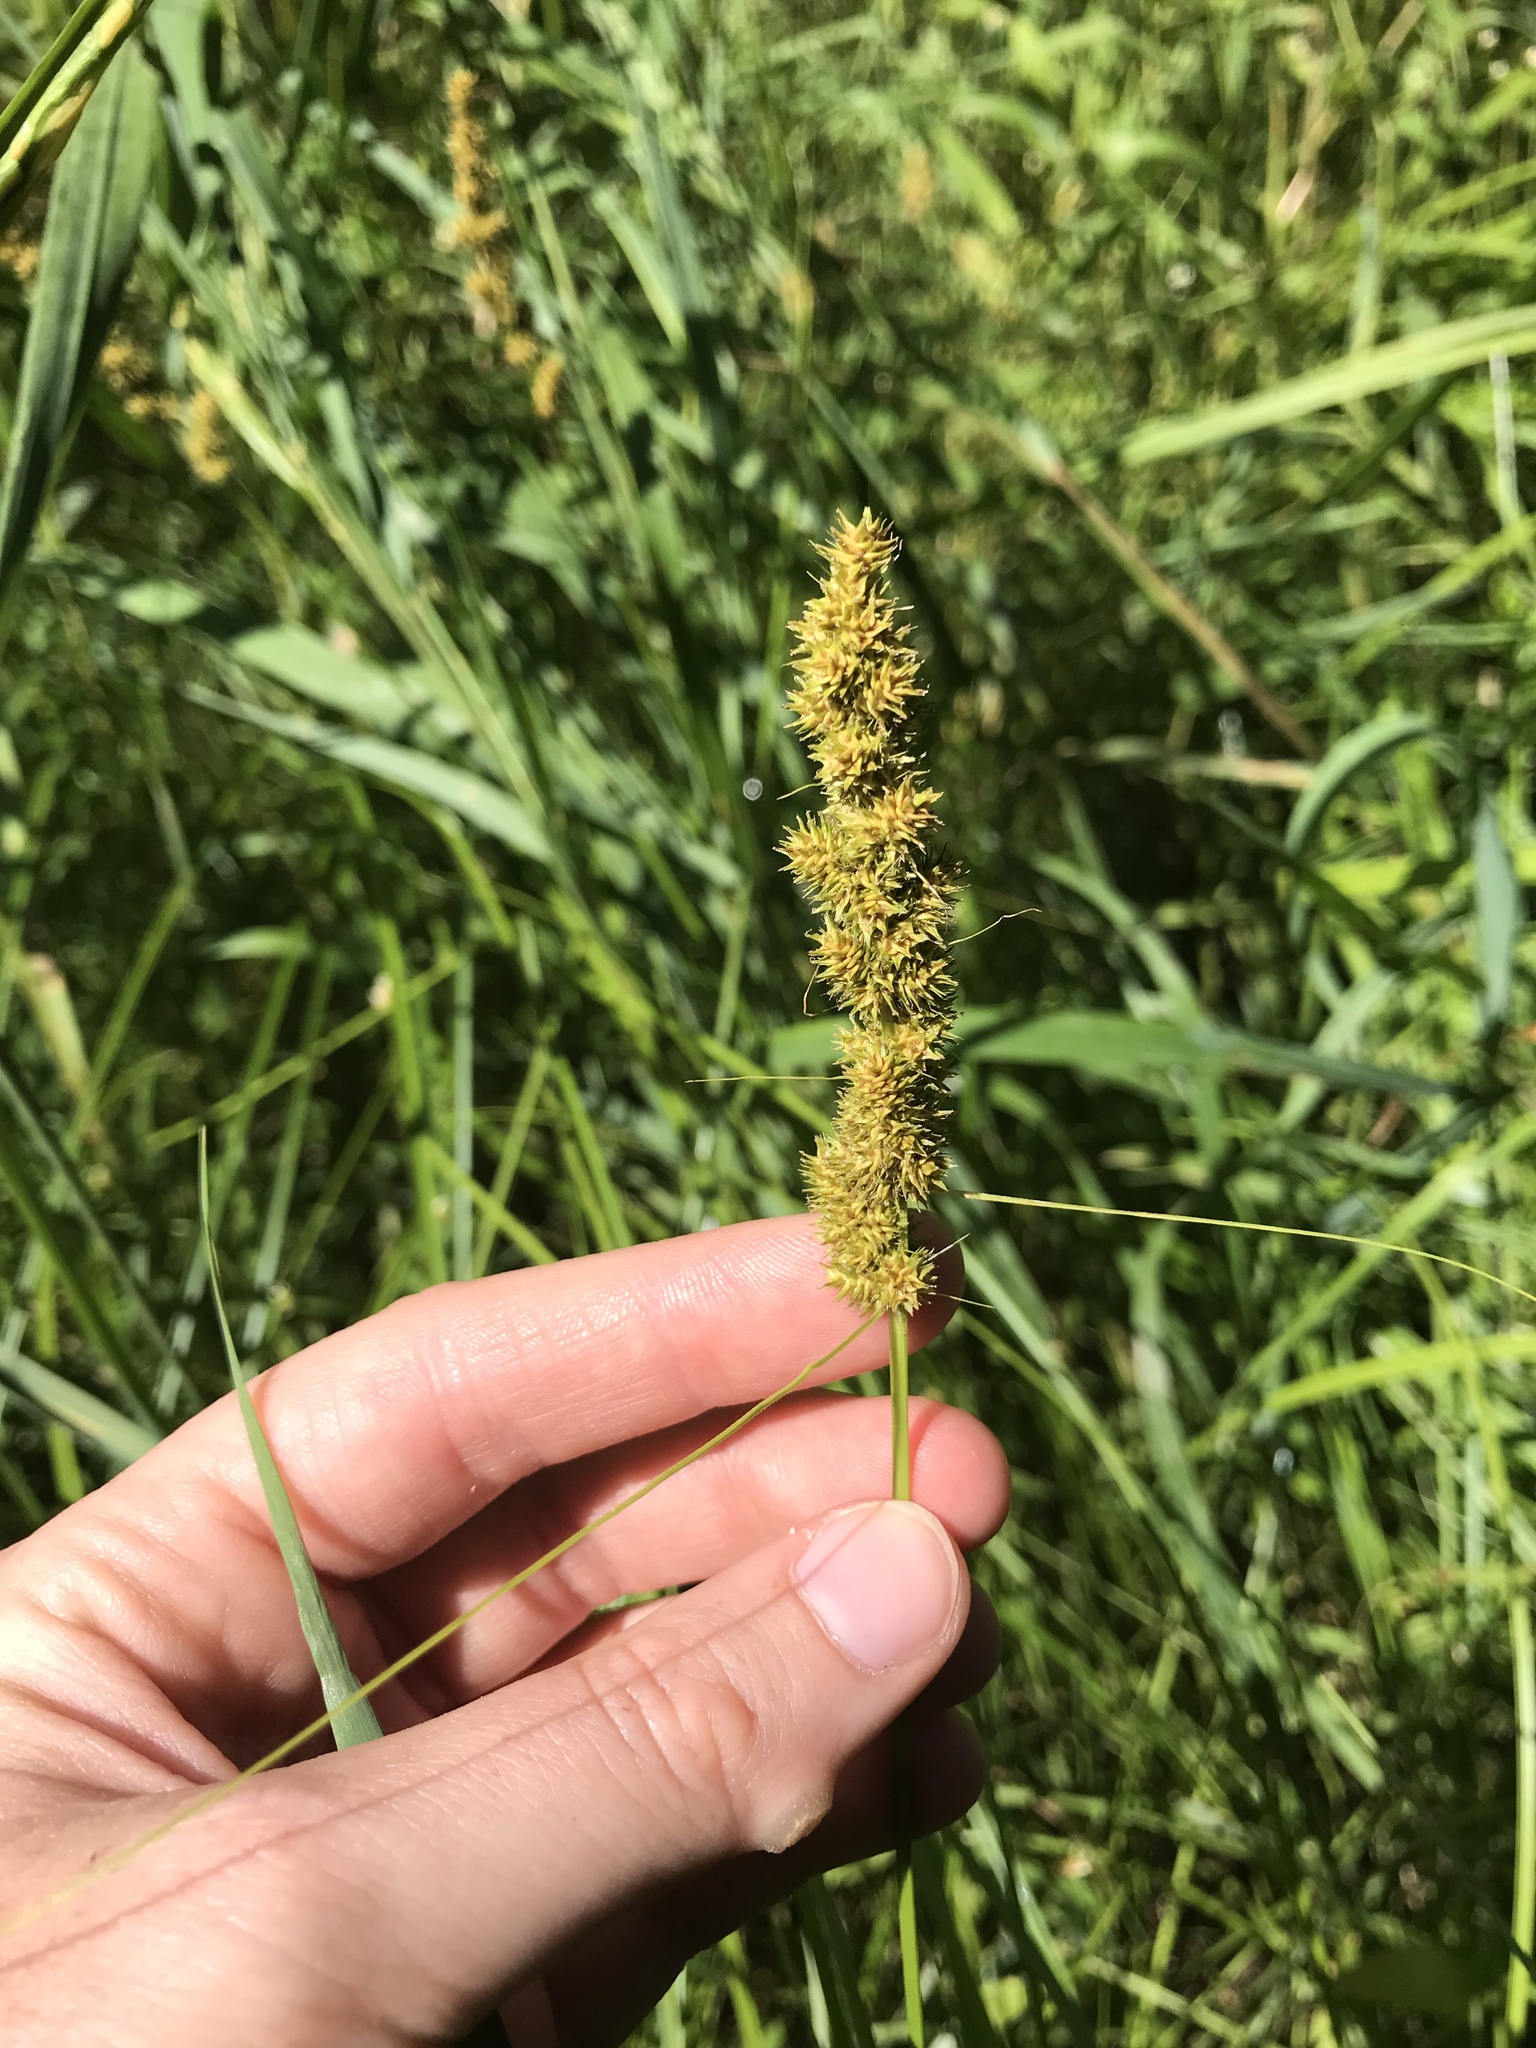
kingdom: Plantae
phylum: Tracheophyta
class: Liliopsida
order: Poales
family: Cyperaceae
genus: Carex
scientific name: Carex vulpinoidea
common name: American fox-sedge
